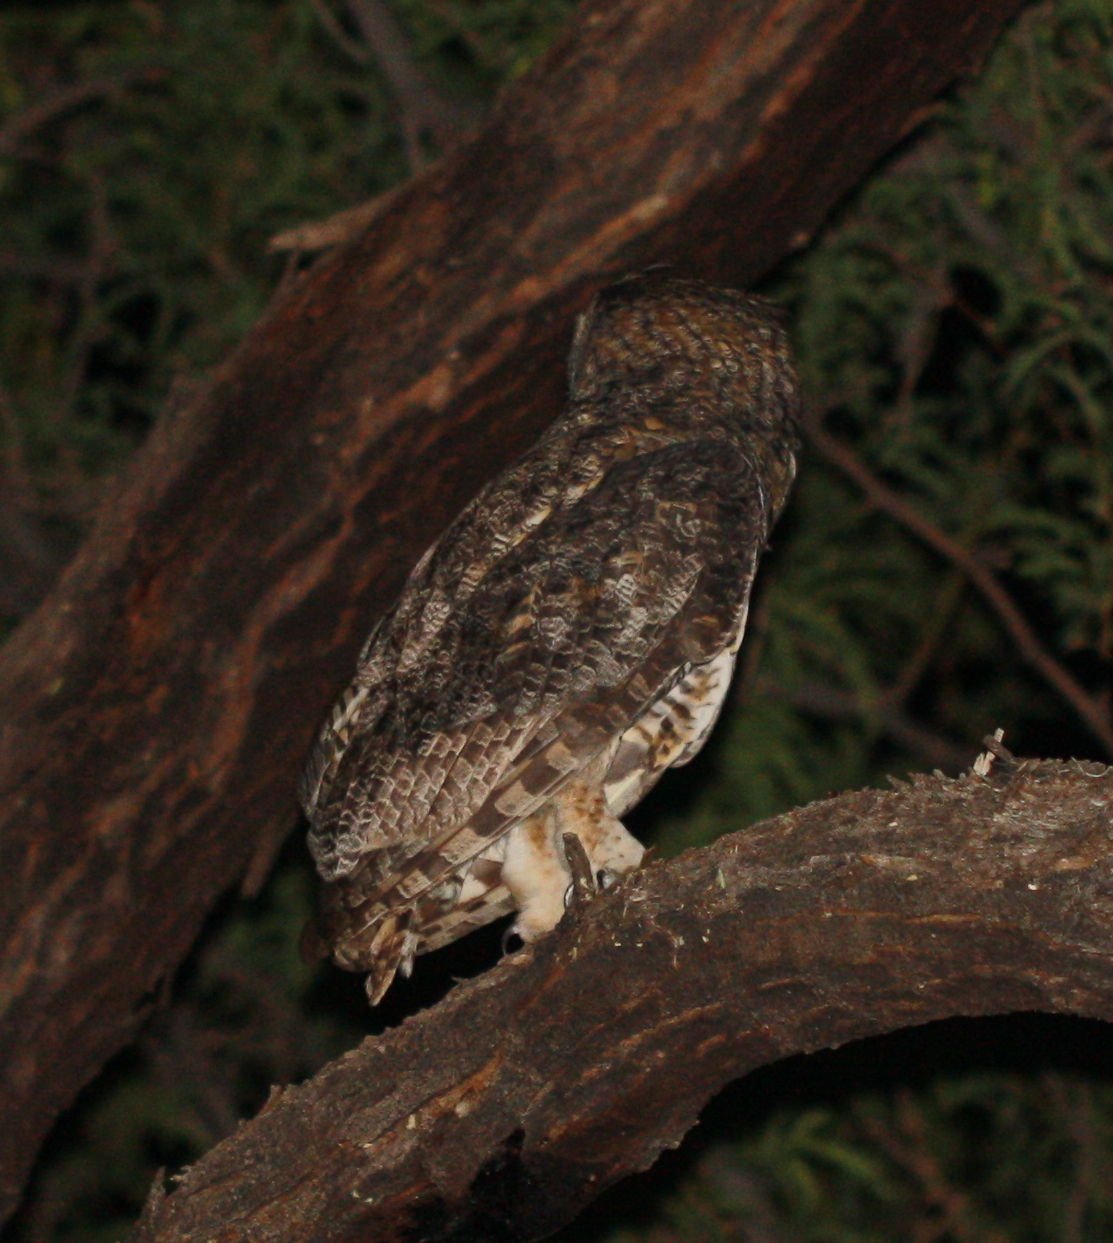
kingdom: Animalia
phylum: Chordata
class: Aves
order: Strigiformes
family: Strigidae
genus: Bubo
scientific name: Bubo virginianus
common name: Great horned owl
